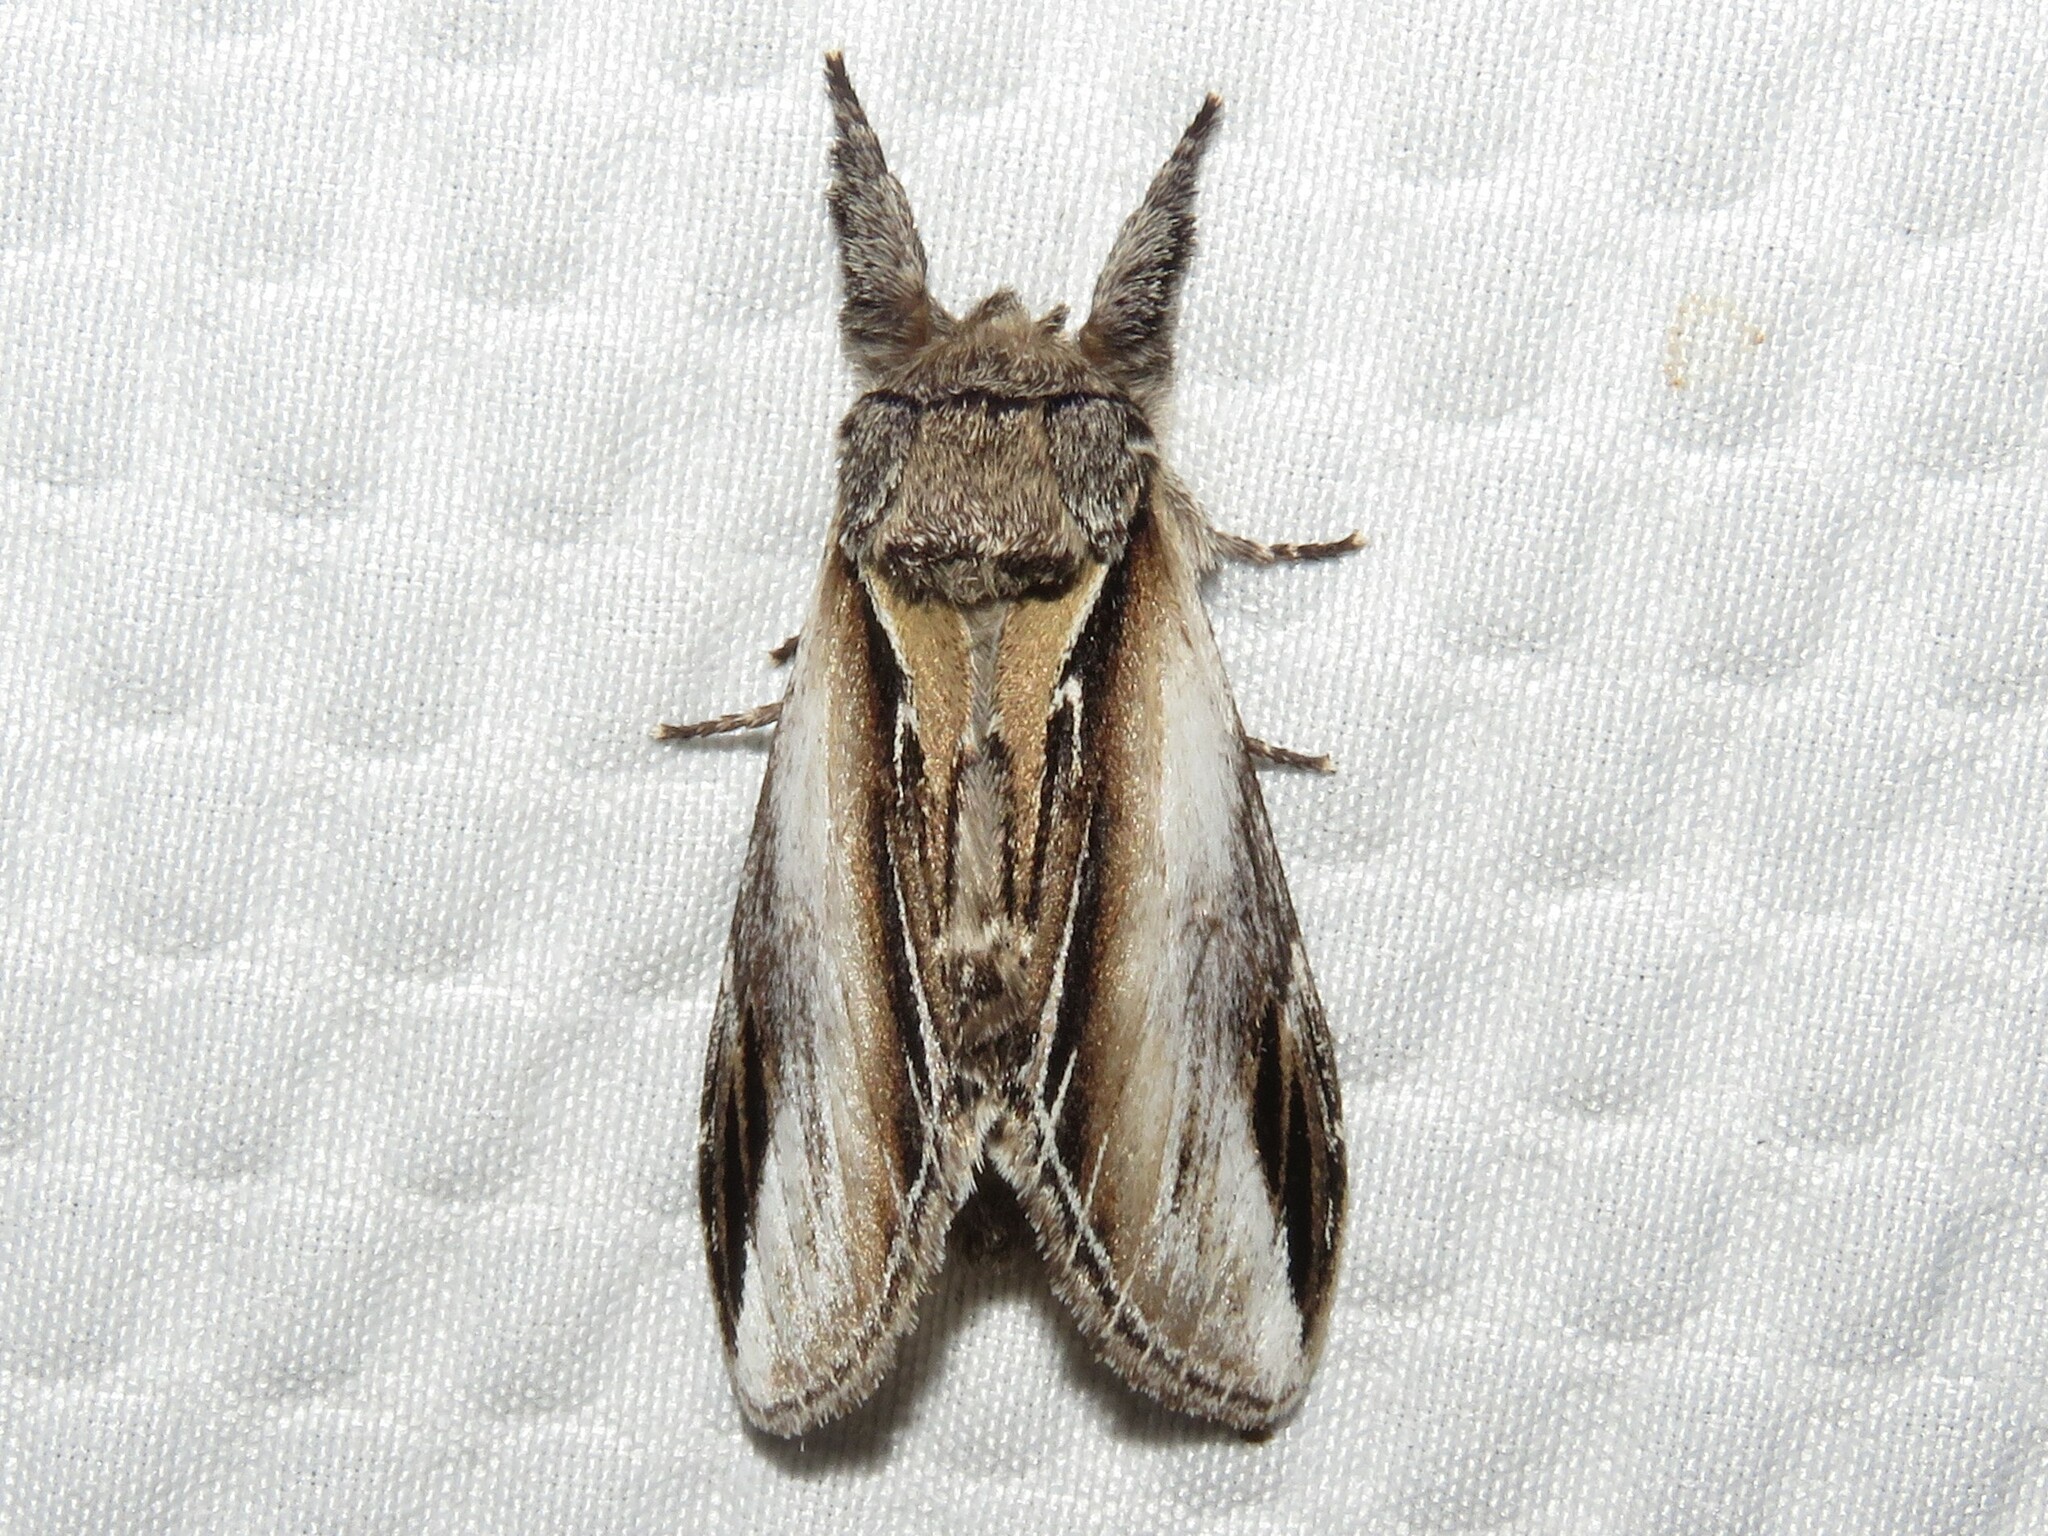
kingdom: Animalia
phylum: Arthropoda
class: Insecta
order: Lepidoptera
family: Notodontidae
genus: Pheosia
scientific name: Pheosia rimosa
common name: Black-rimmed prominent
